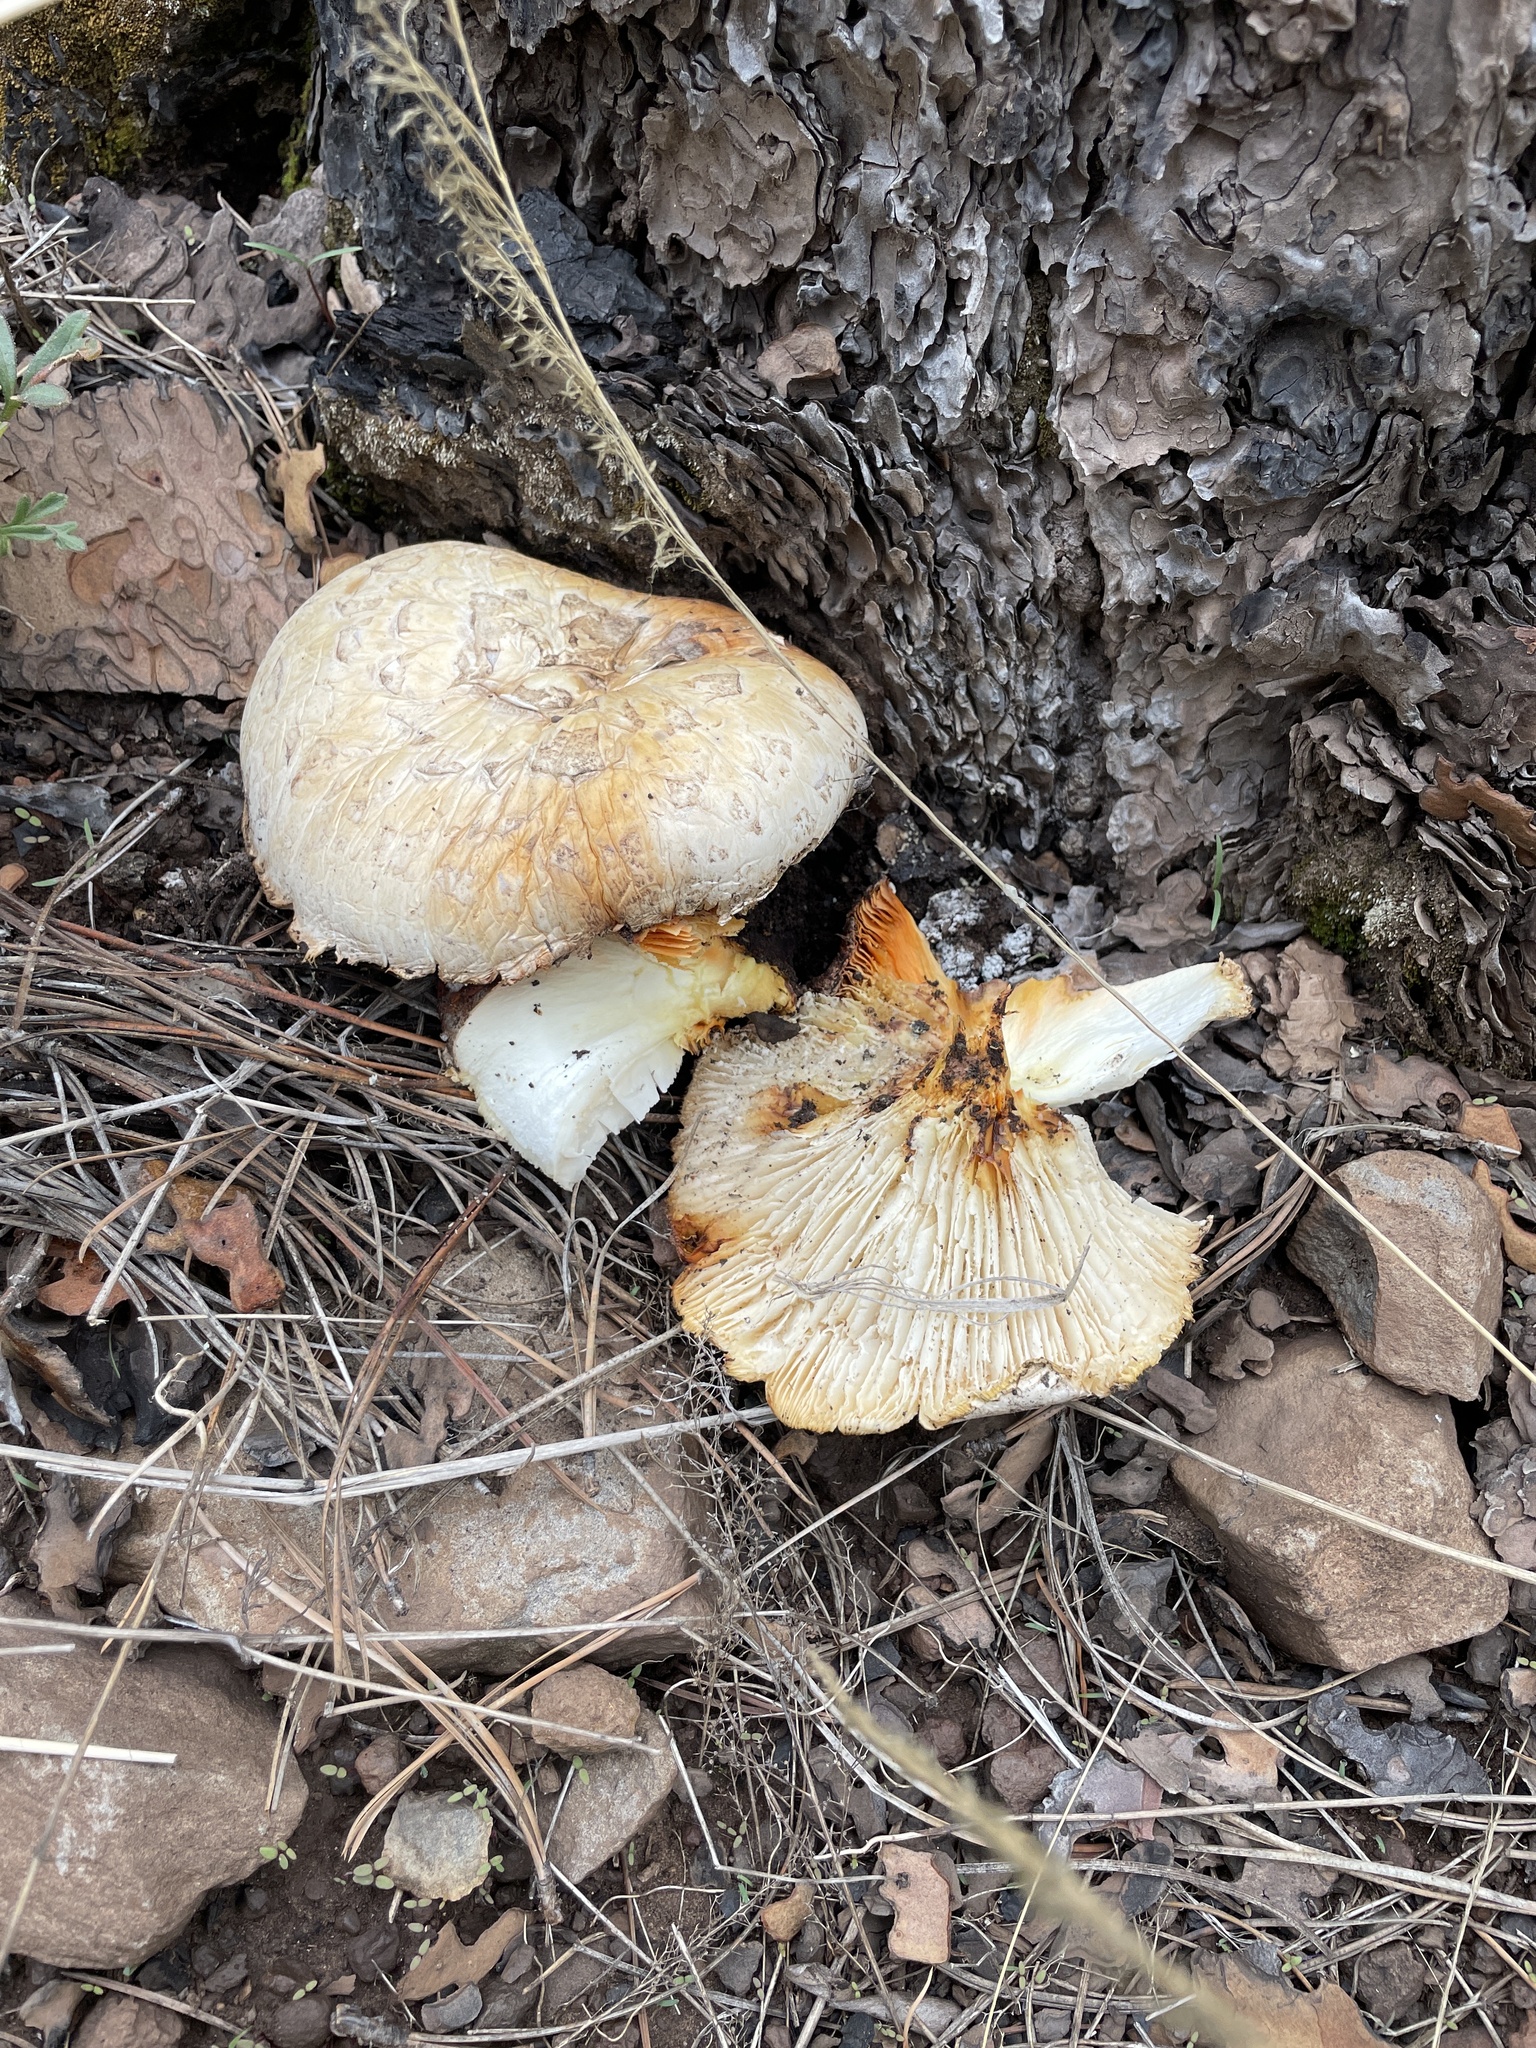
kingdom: Fungi
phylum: Basidiomycota
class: Agaricomycetes
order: Gloeophyllales
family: Gloeophyllaceae
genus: Neolentinus
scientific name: Neolentinus ponderosus
